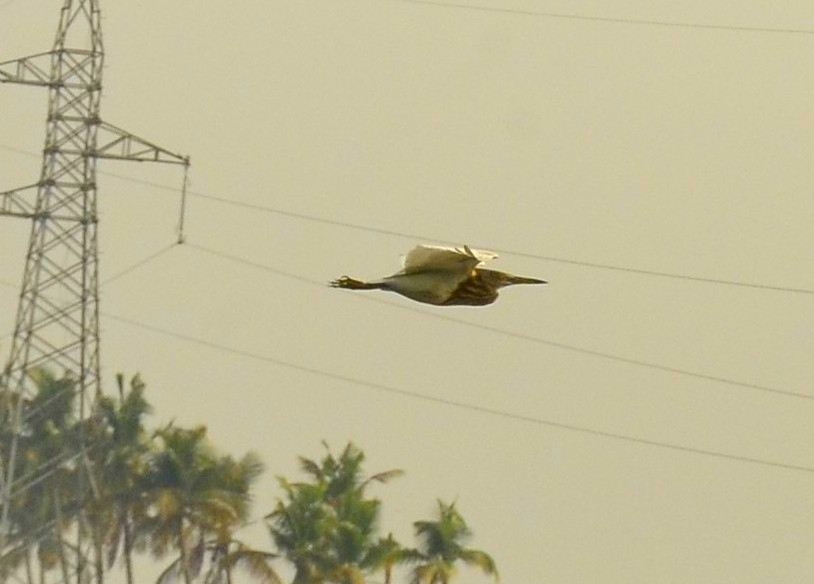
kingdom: Animalia
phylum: Chordata
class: Aves
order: Pelecaniformes
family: Ardeidae
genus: Ardeola
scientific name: Ardeola grayii
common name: Indian pond heron
